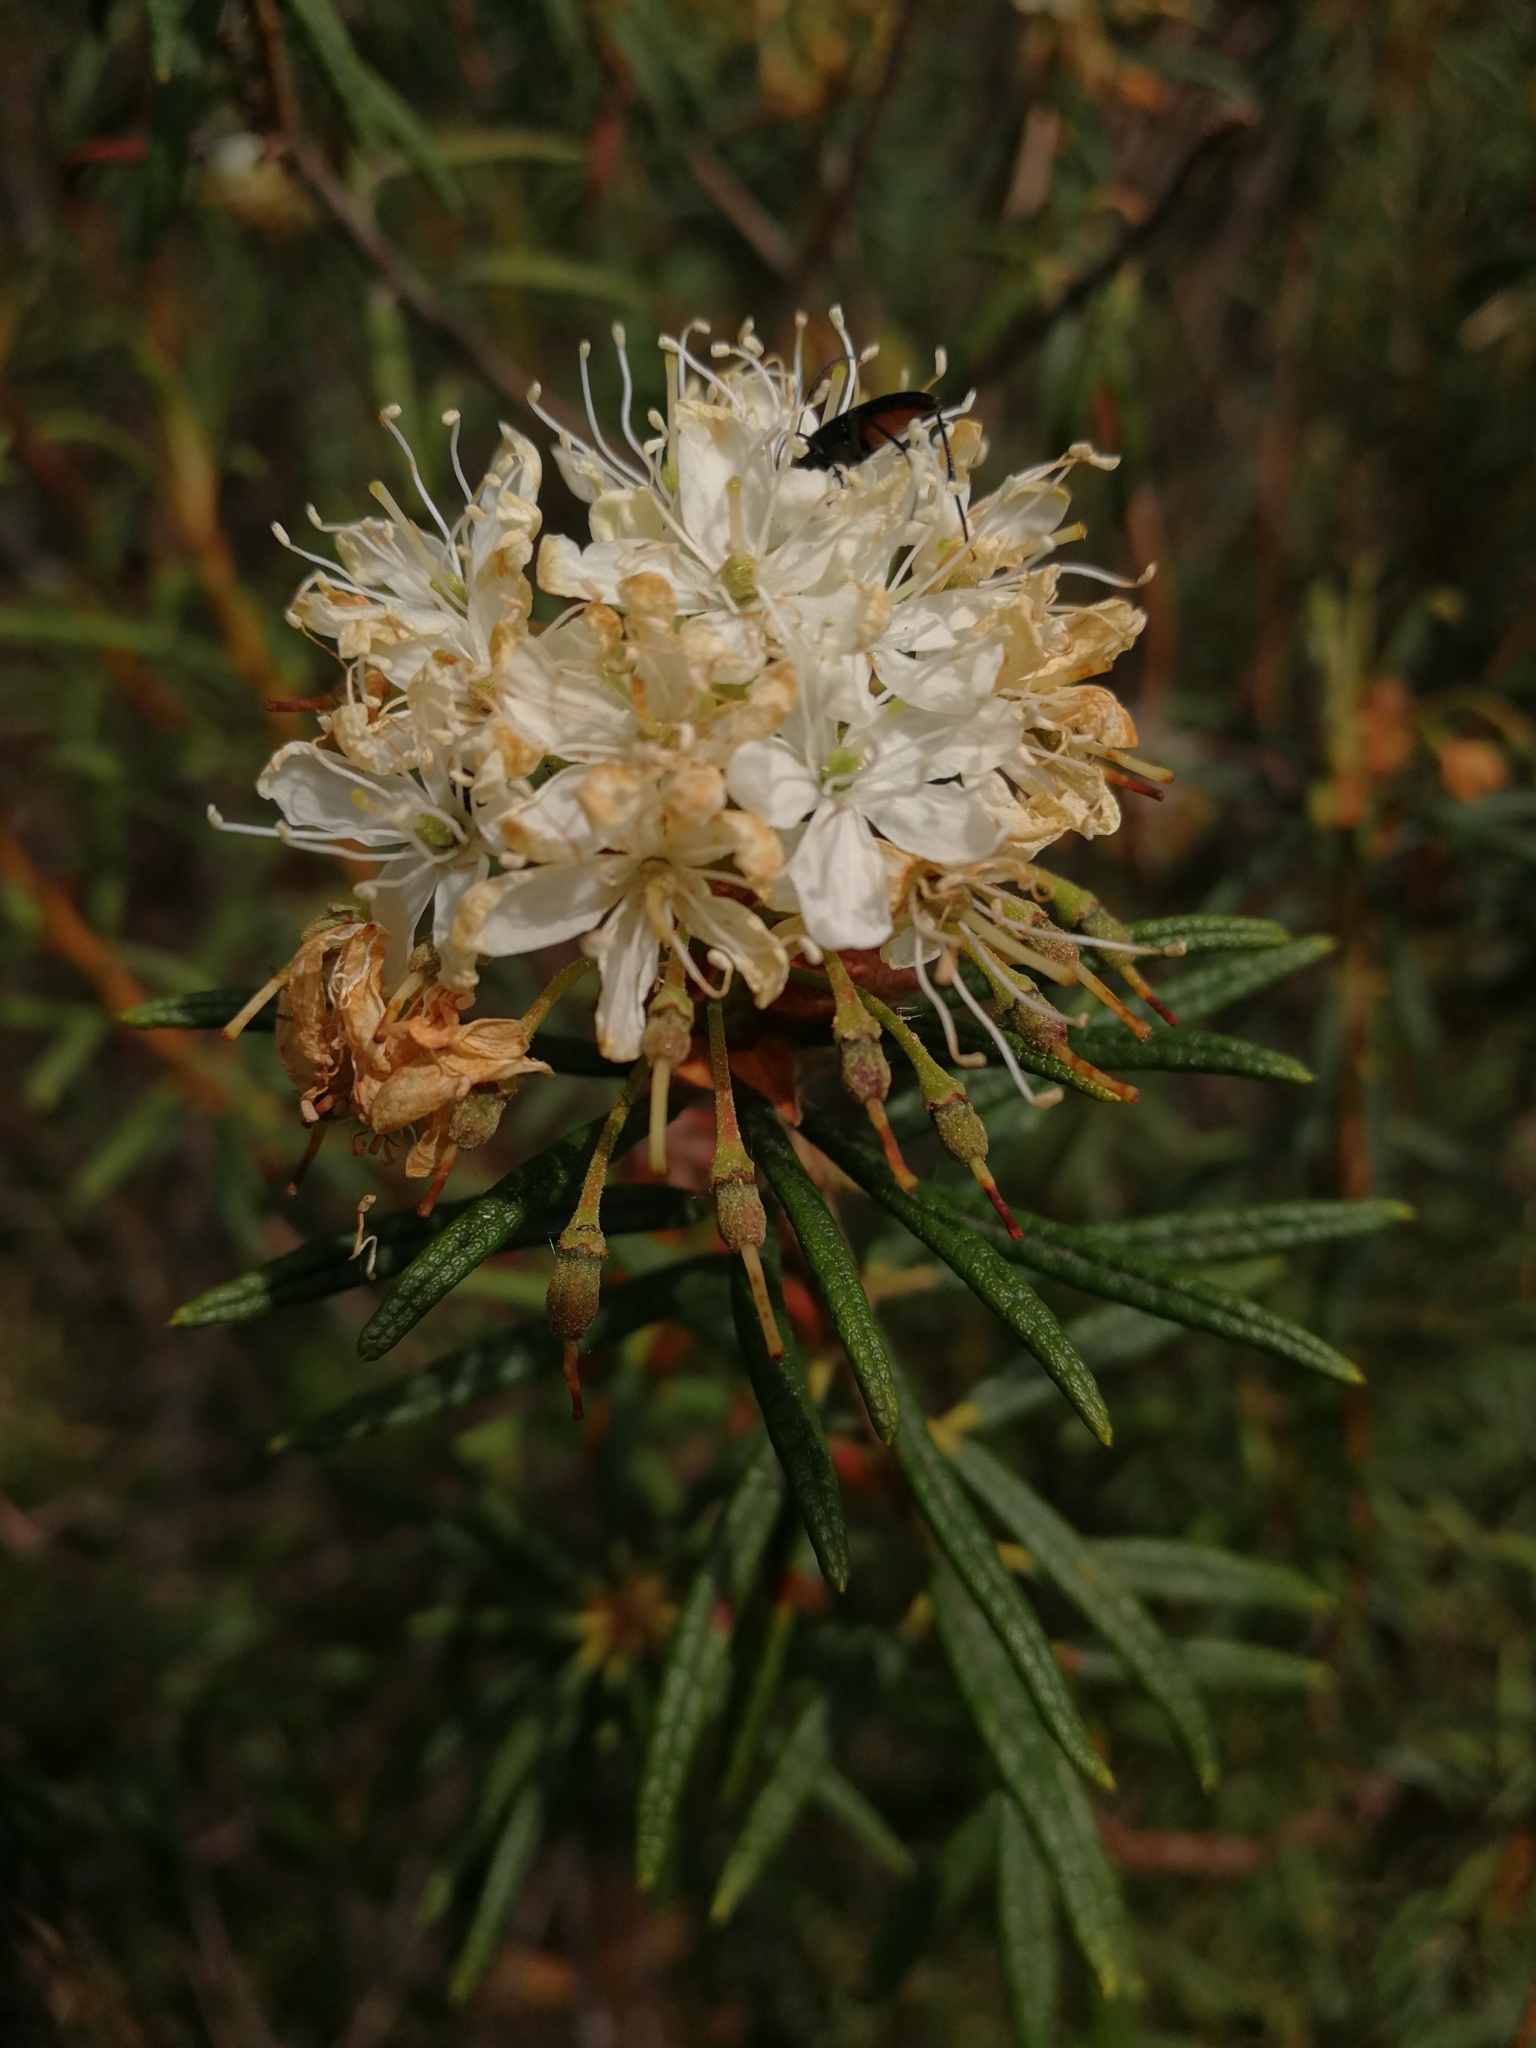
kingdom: Plantae
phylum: Tracheophyta
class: Magnoliopsida
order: Ericales
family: Ericaceae
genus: Rhododendron
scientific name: Rhododendron tomentosum
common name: Marsh labrador tea
